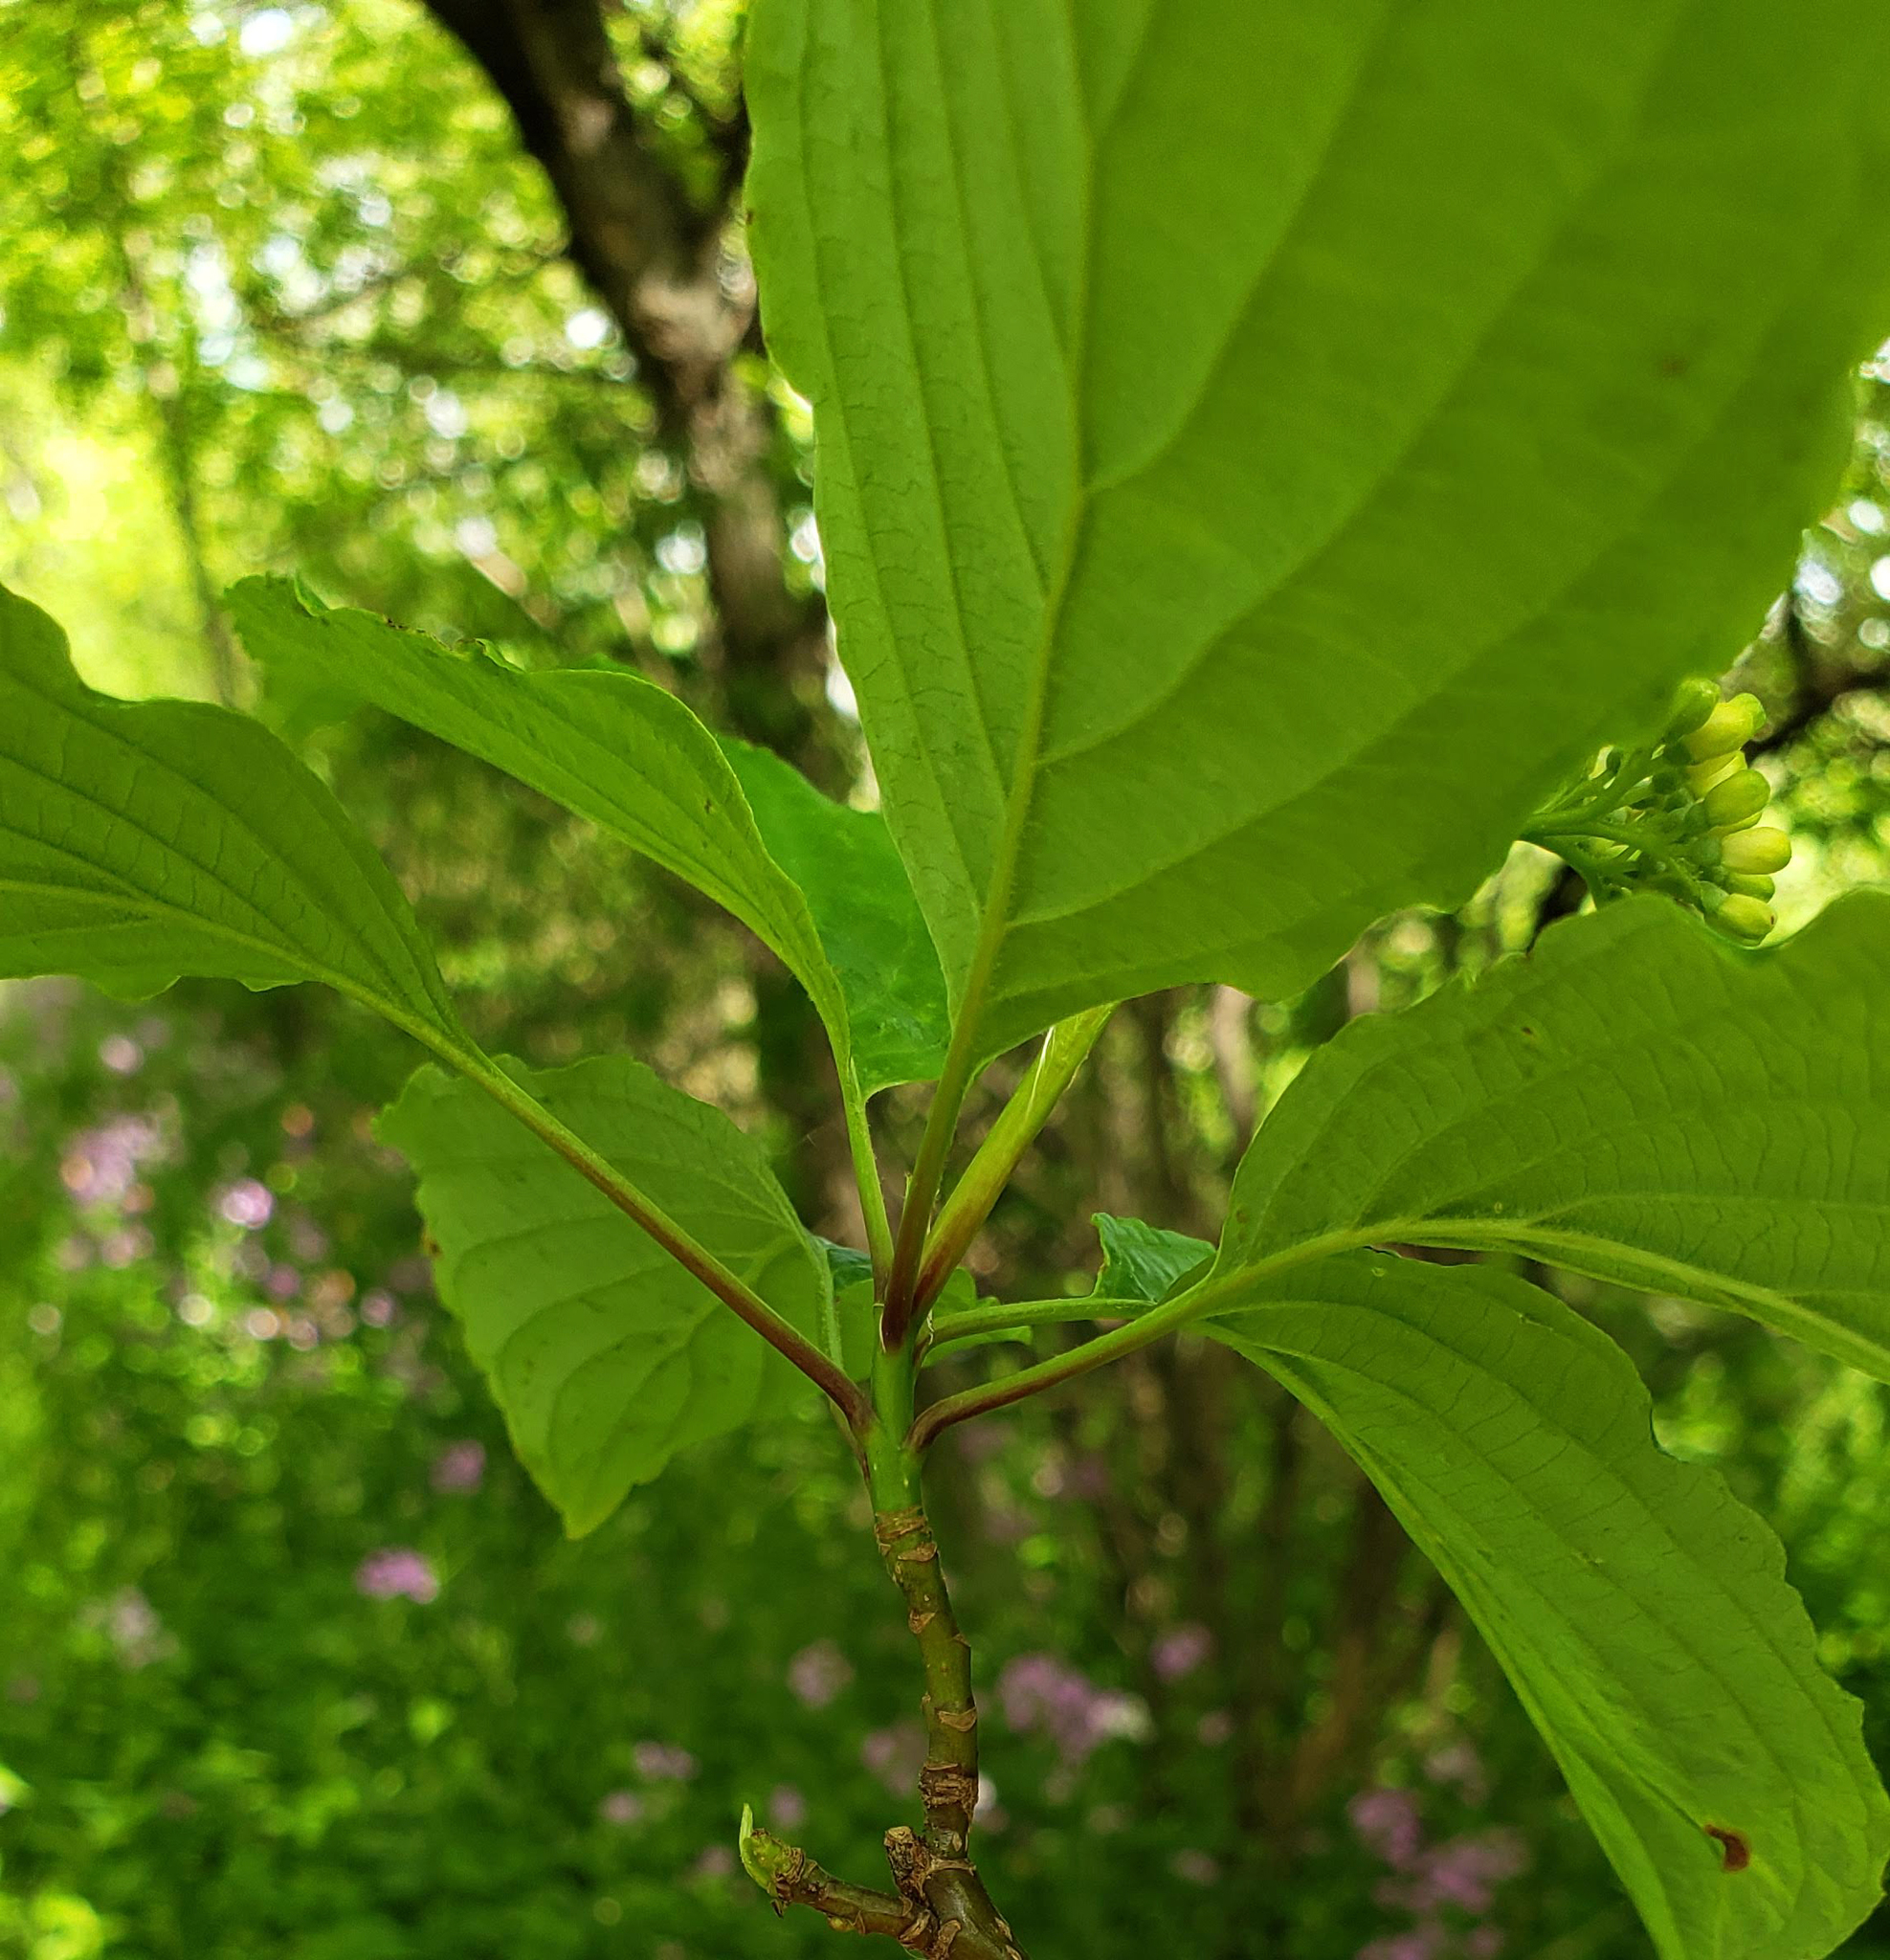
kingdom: Plantae
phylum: Tracheophyta
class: Magnoliopsida
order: Cornales
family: Cornaceae
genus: Cornus
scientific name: Cornus alternifolia
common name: Pagoda dogwood
